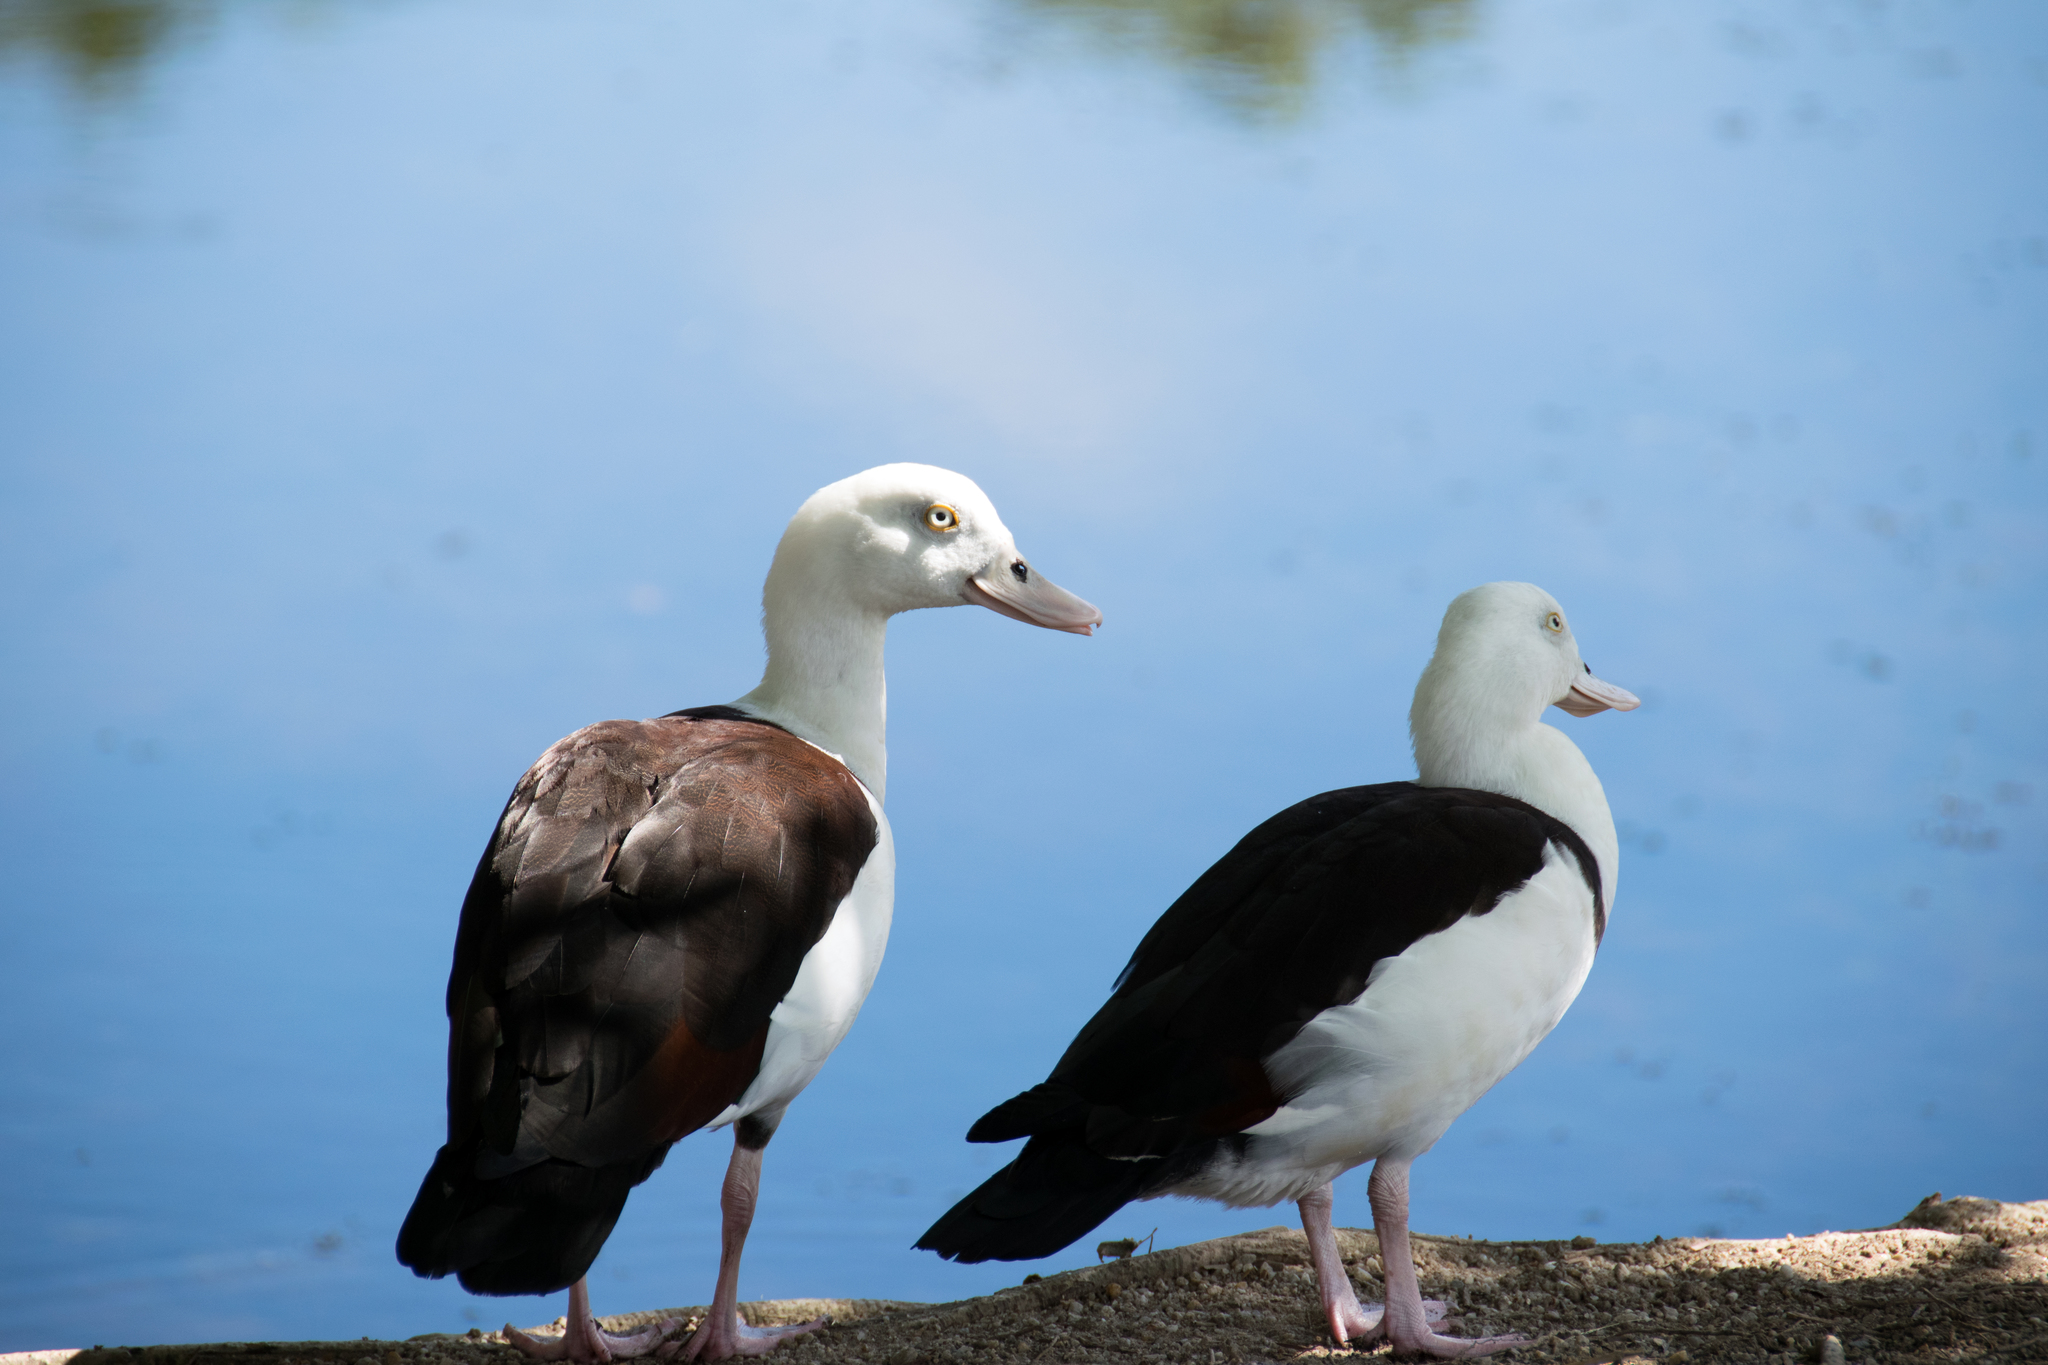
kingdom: Animalia
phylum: Chordata
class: Aves
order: Anseriformes
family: Anatidae
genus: Radjah
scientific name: Radjah radjah
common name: Radjah shelduck
